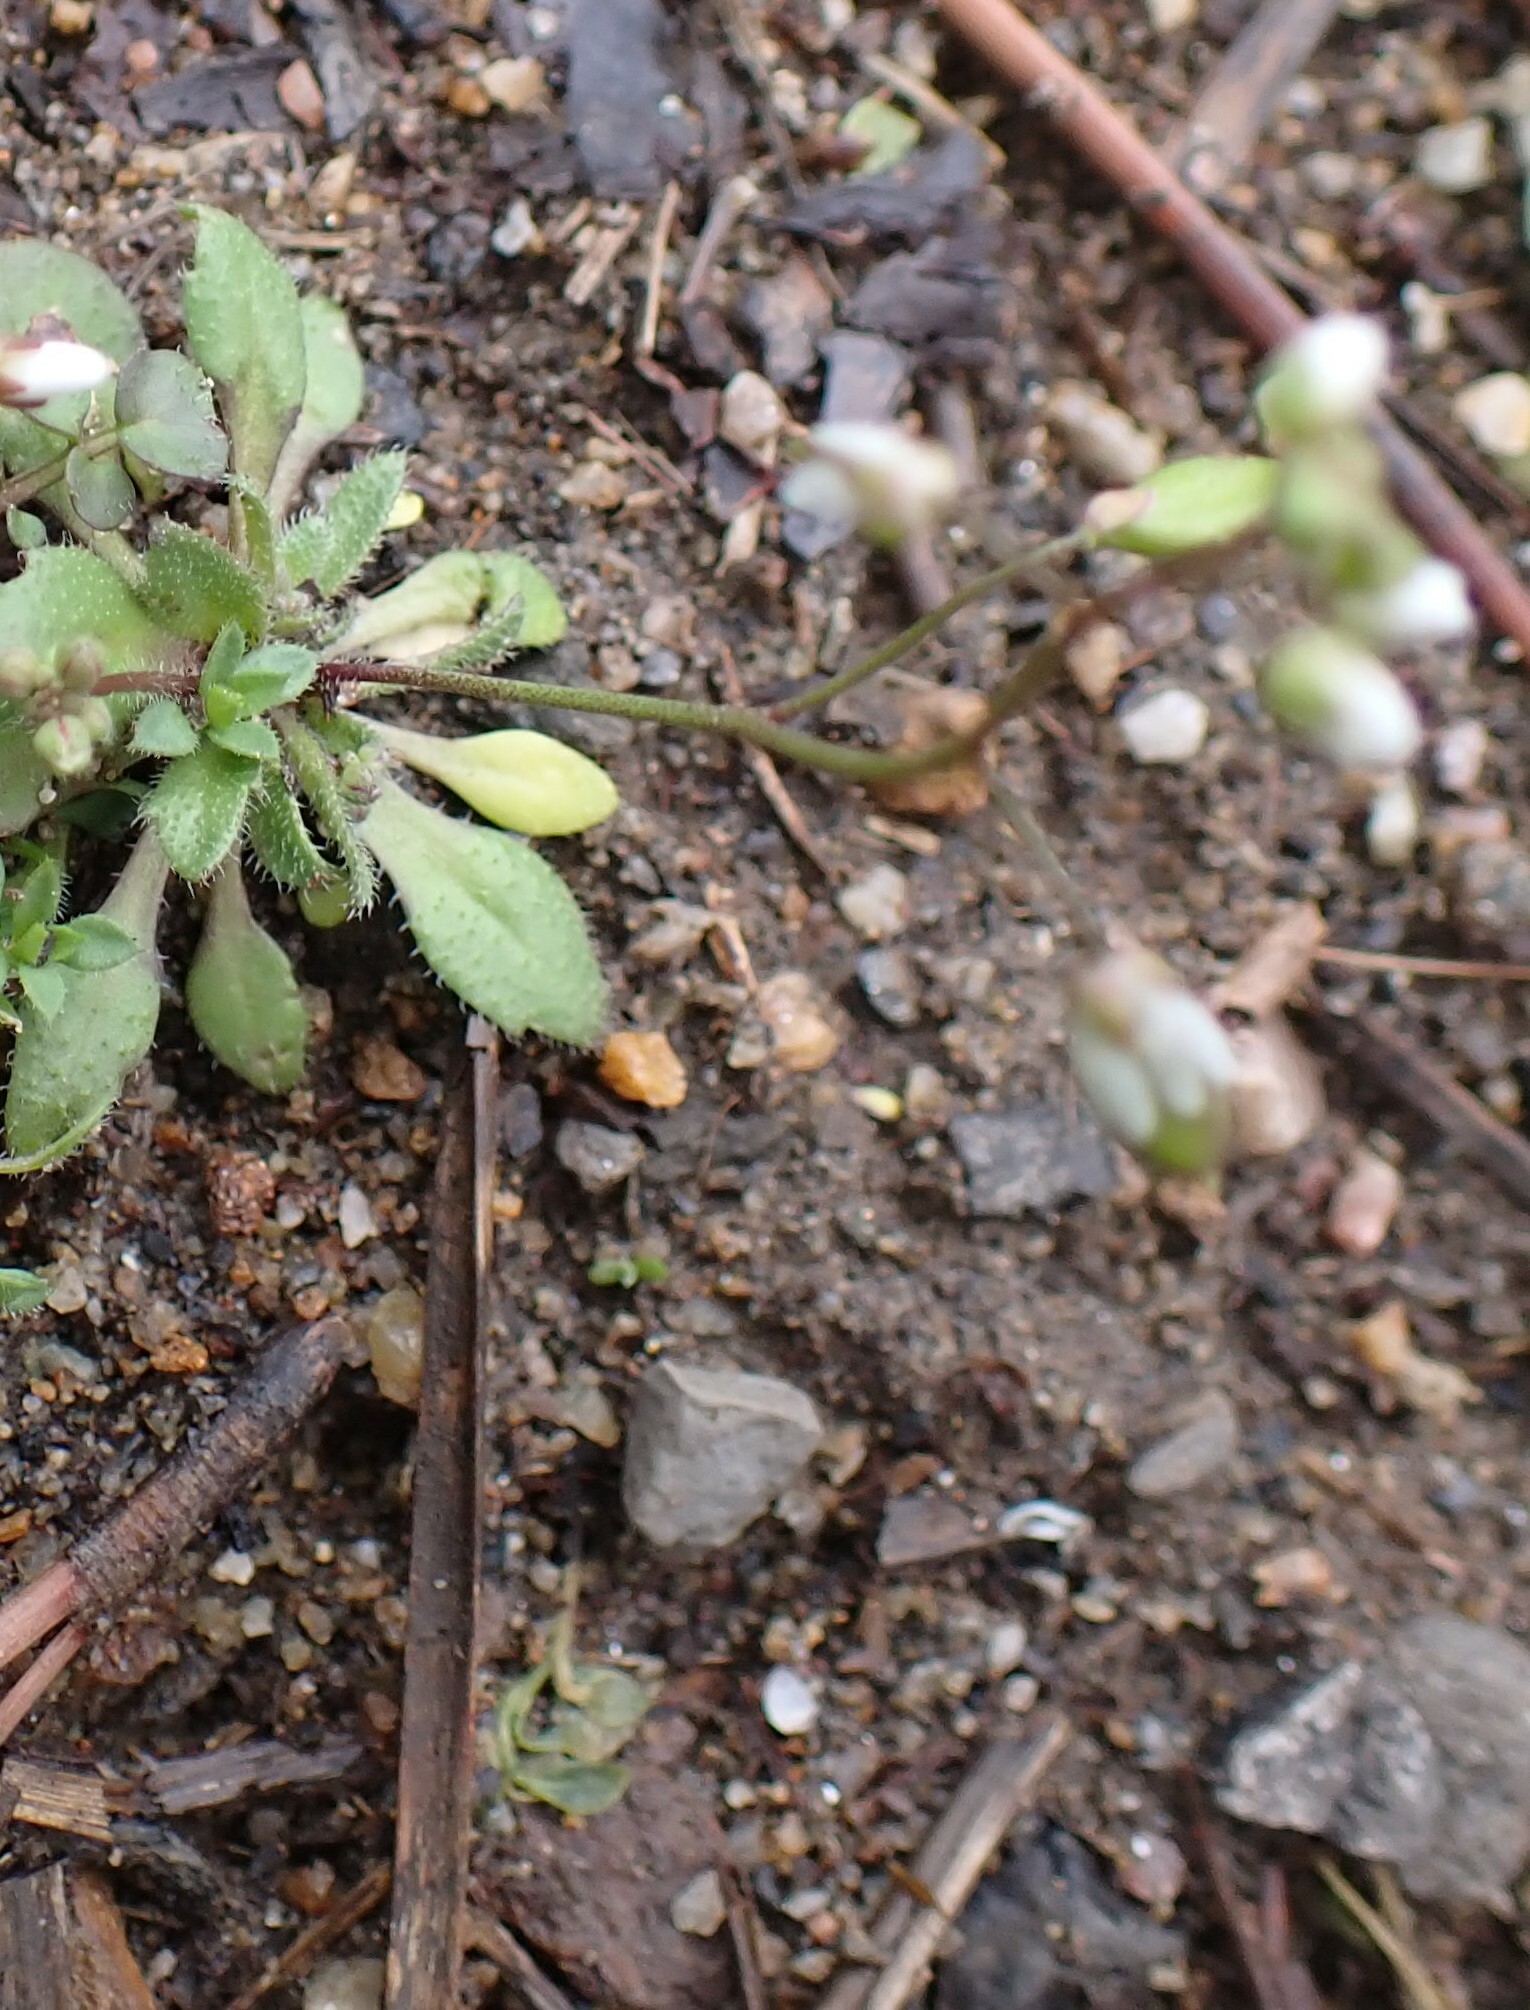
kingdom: Plantae
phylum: Tracheophyta
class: Magnoliopsida
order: Brassicales
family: Brassicaceae
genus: Draba
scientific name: Draba verna
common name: Spring draba
